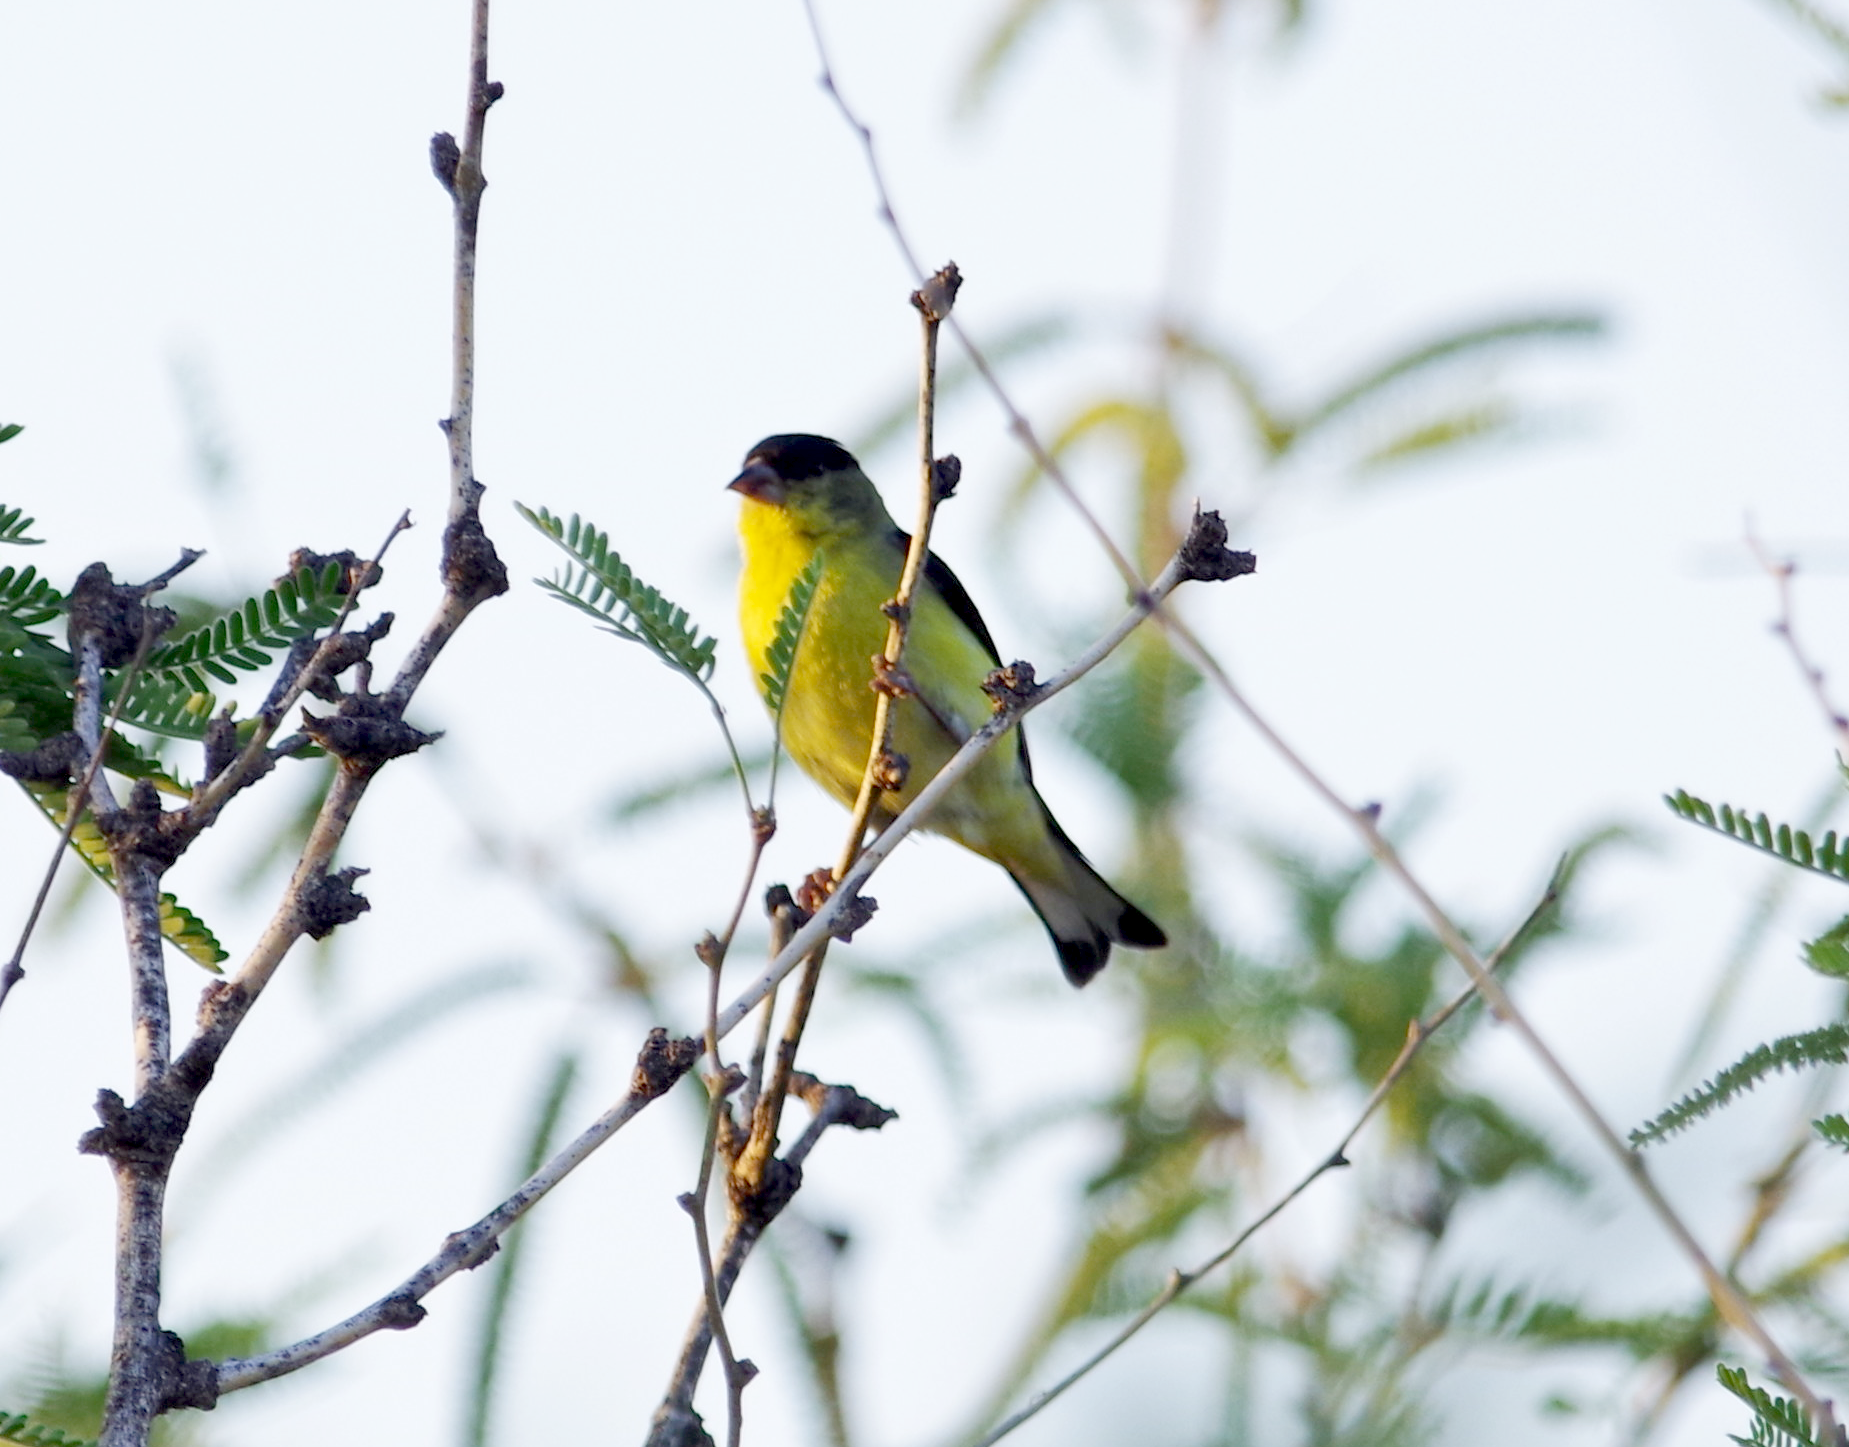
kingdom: Animalia
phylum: Chordata
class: Aves
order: Passeriformes
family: Fringillidae
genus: Spinus
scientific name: Spinus psaltria
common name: Lesser goldfinch
